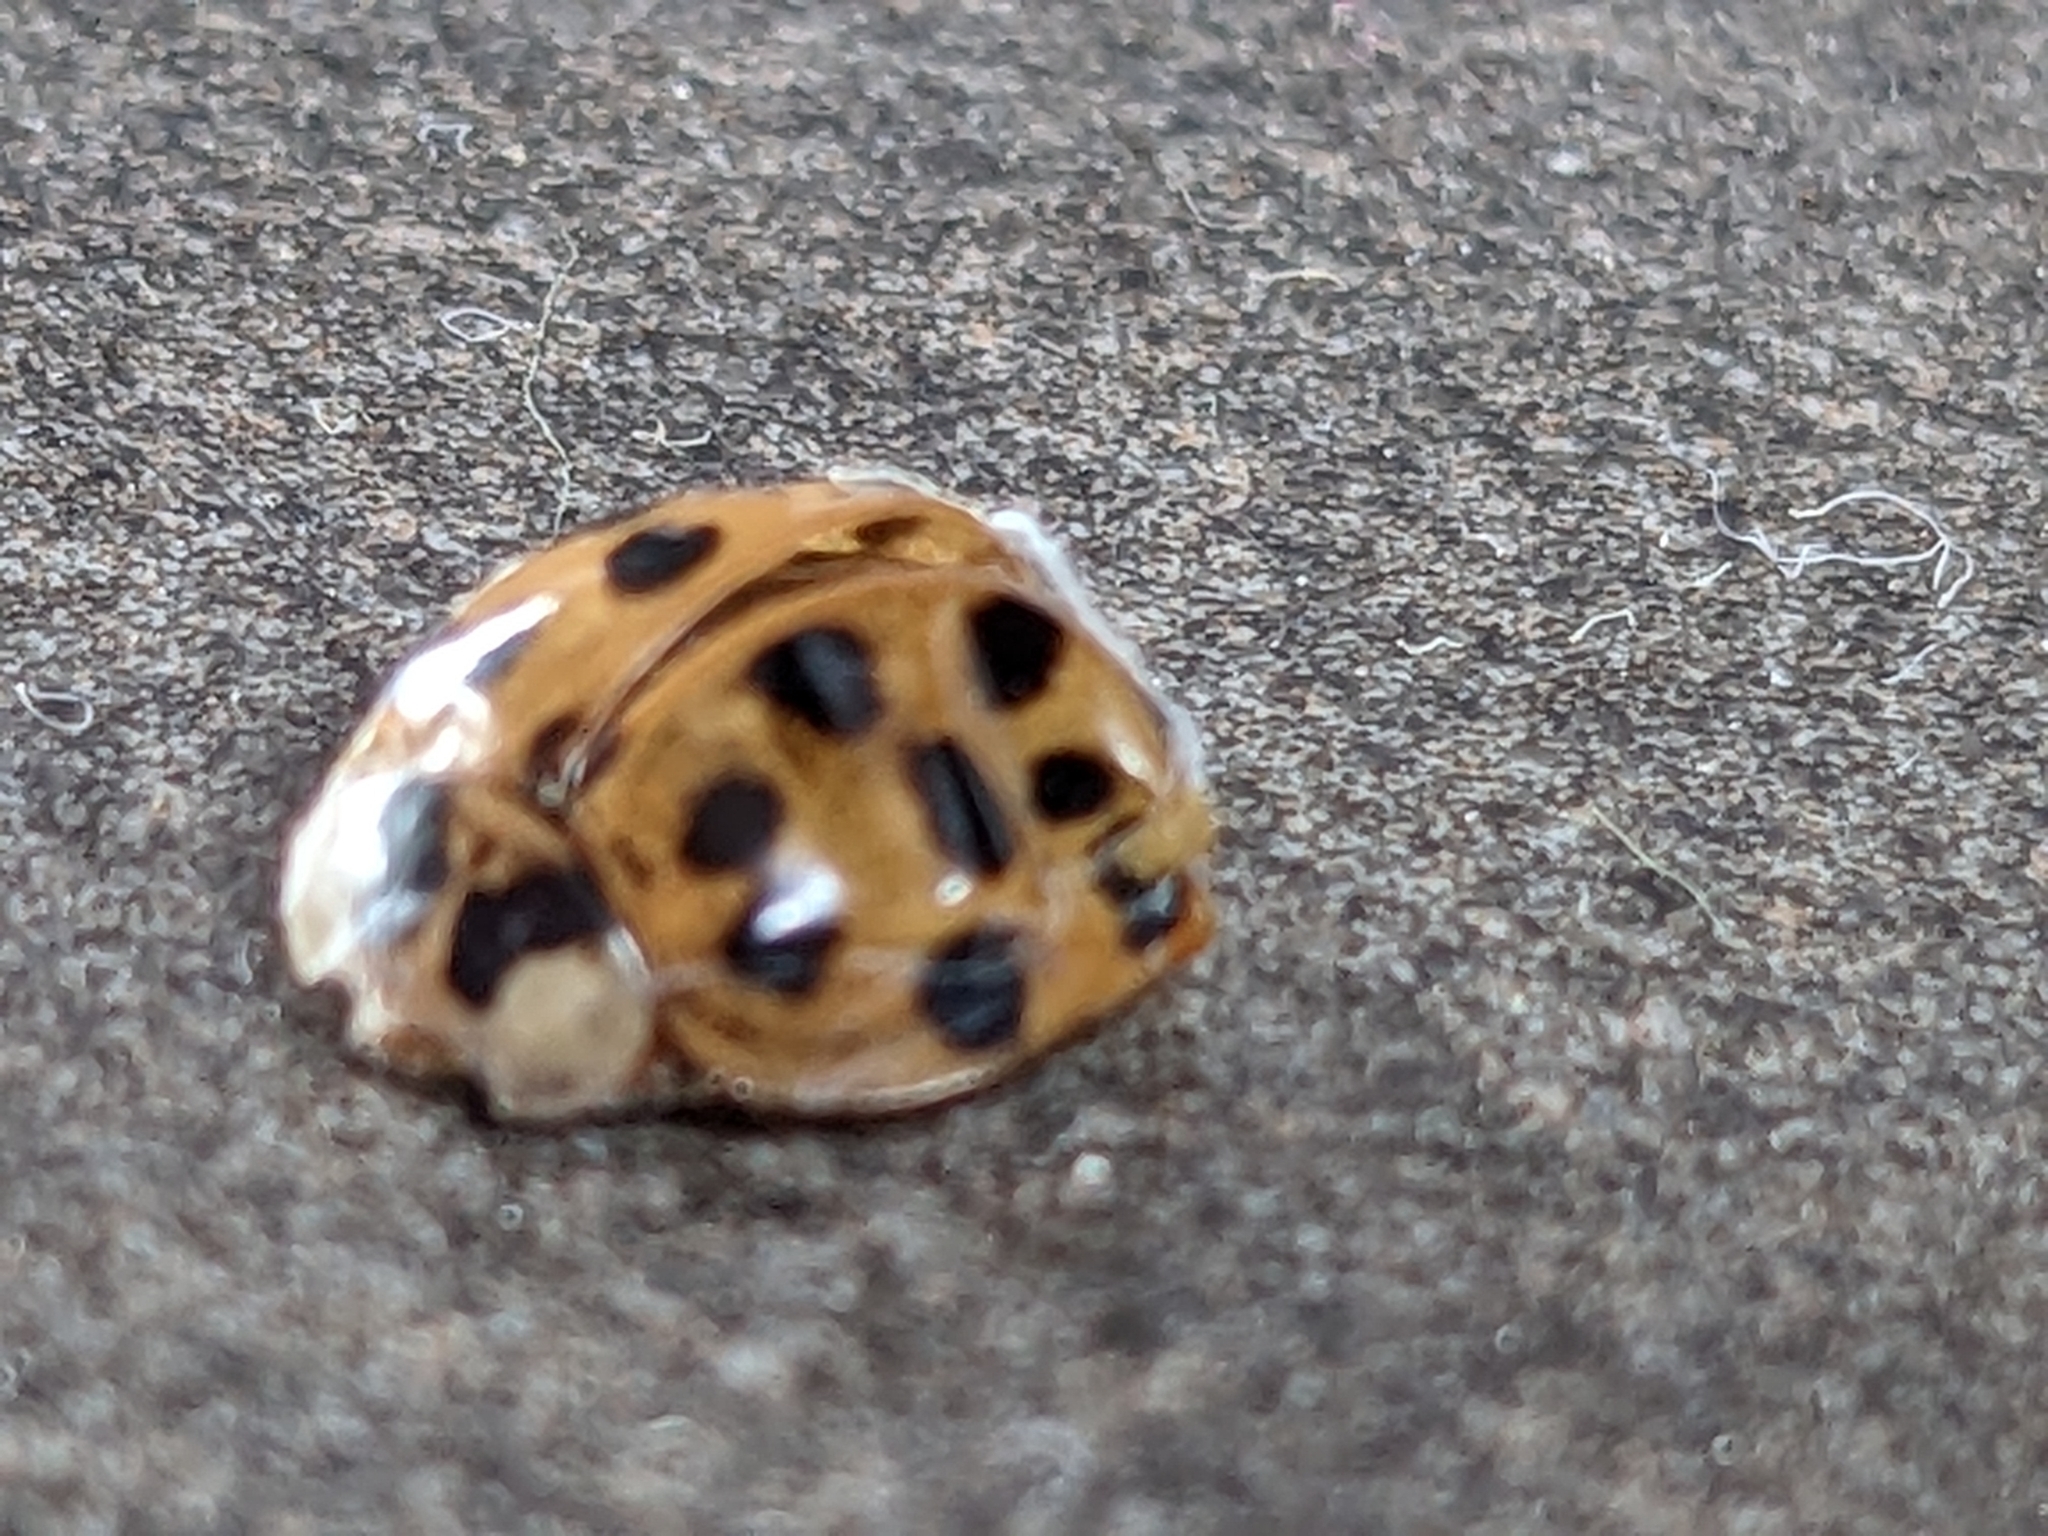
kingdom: Animalia
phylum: Arthropoda
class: Insecta
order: Coleoptera
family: Coccinellidae
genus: Harmonia
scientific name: Harmonia axyridis
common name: Harlequin ladybird
